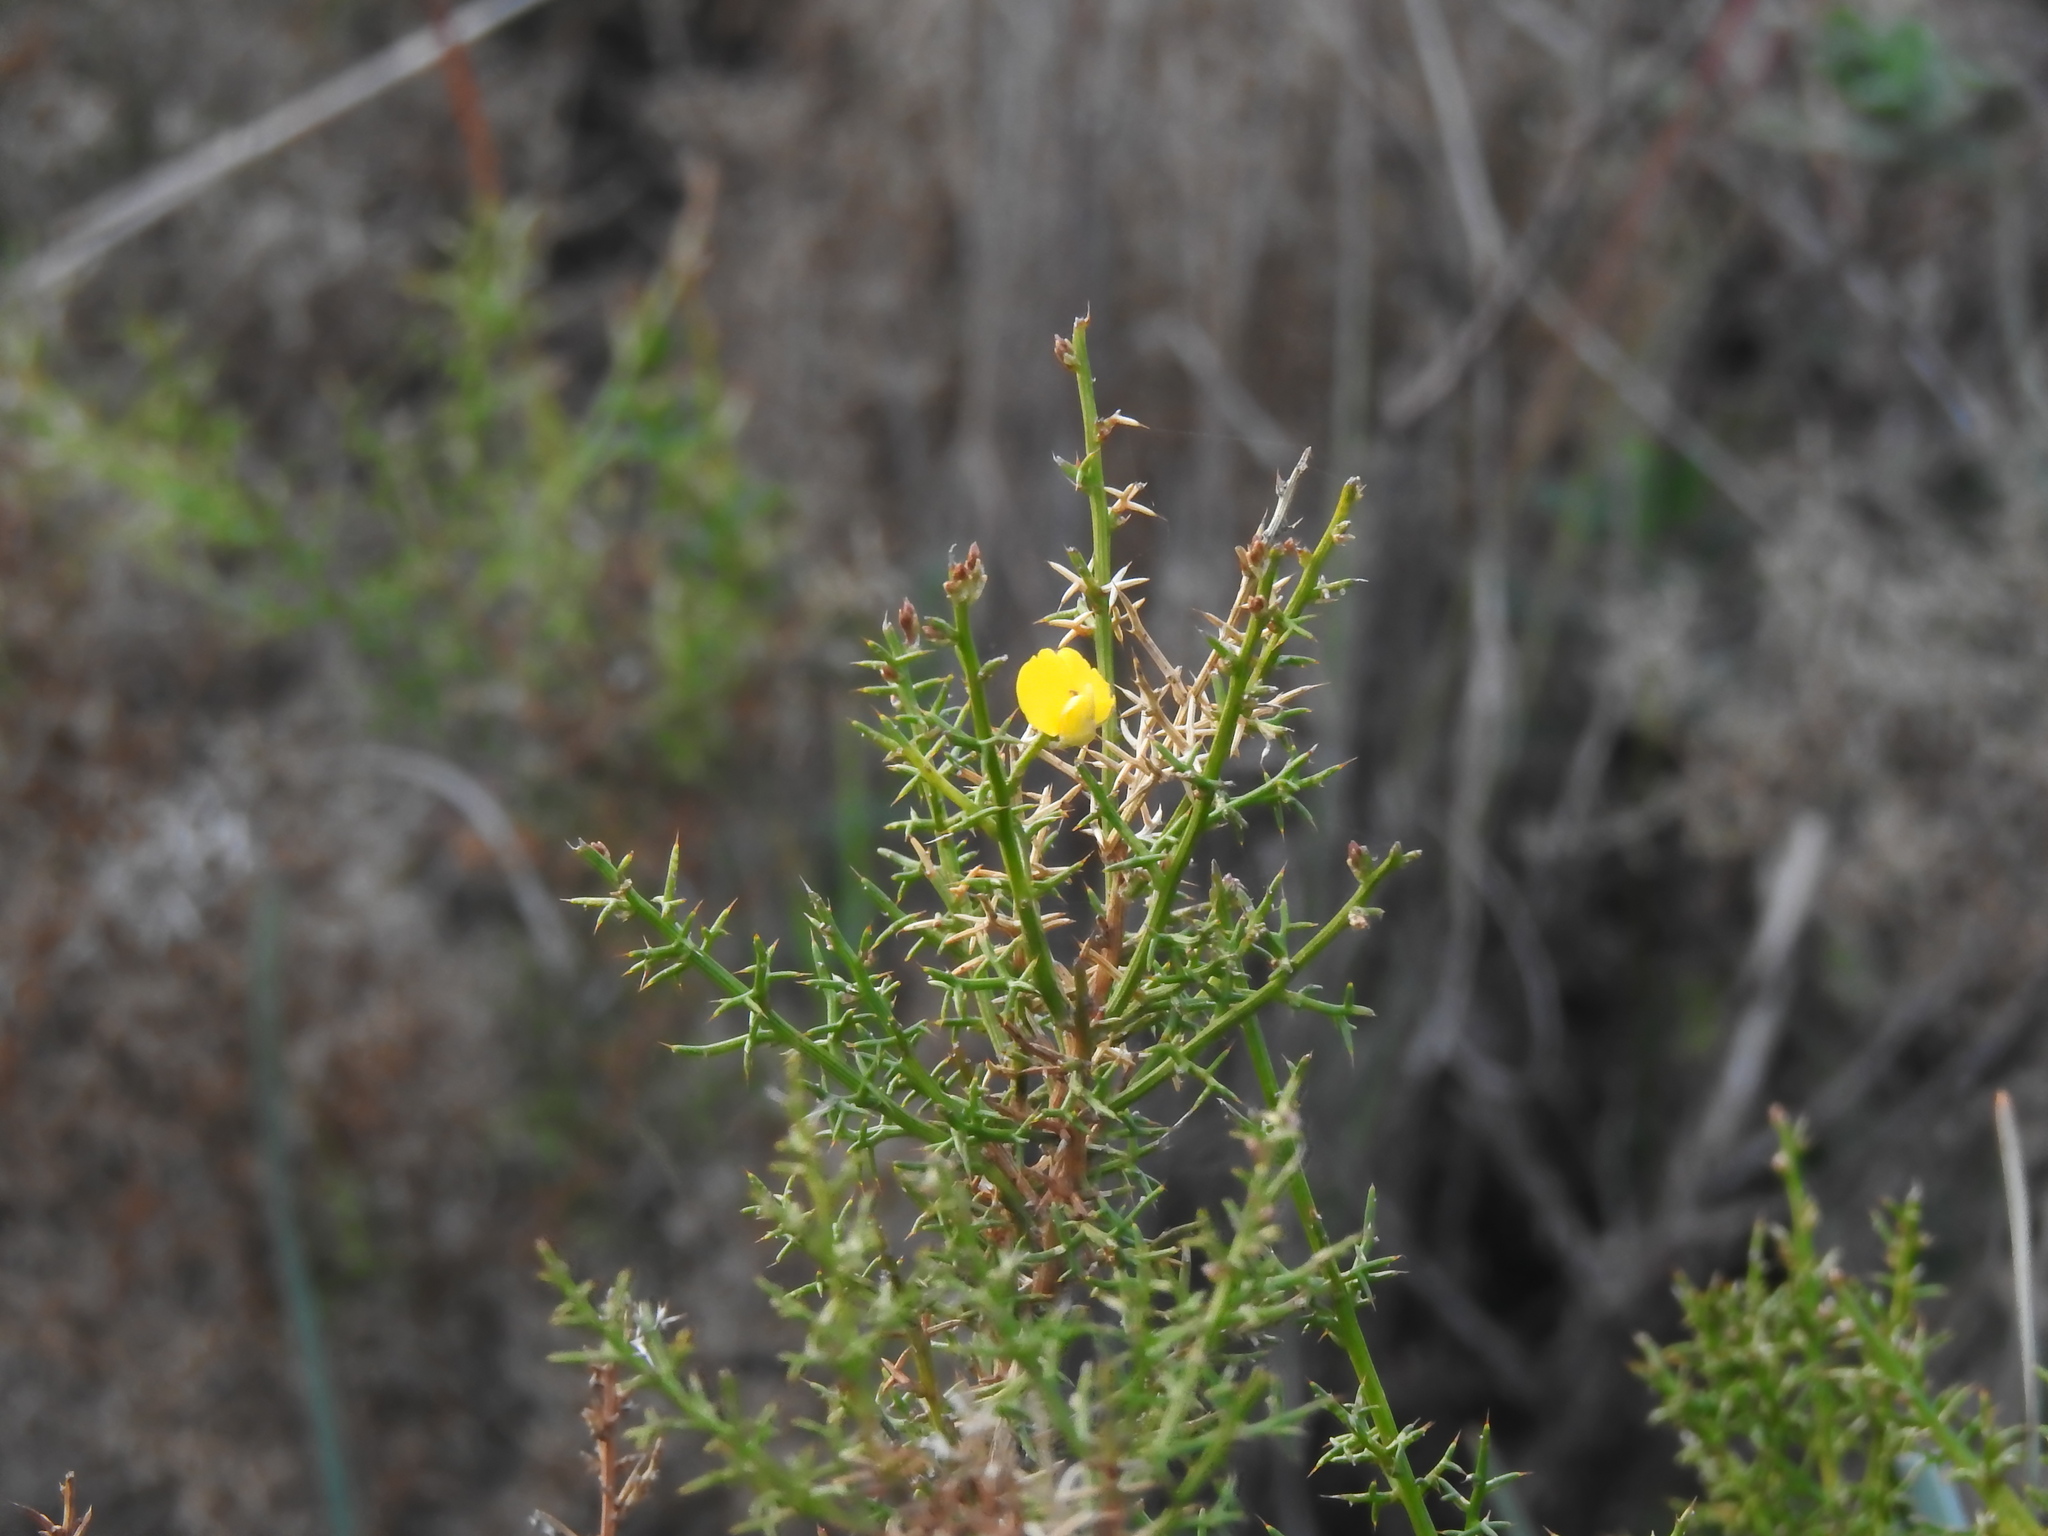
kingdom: Plantae
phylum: Tracheophyta
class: Magnoliopsida
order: Fabales
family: Fabaceae
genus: Stauracanthus
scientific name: Stauracanthus boivinii
